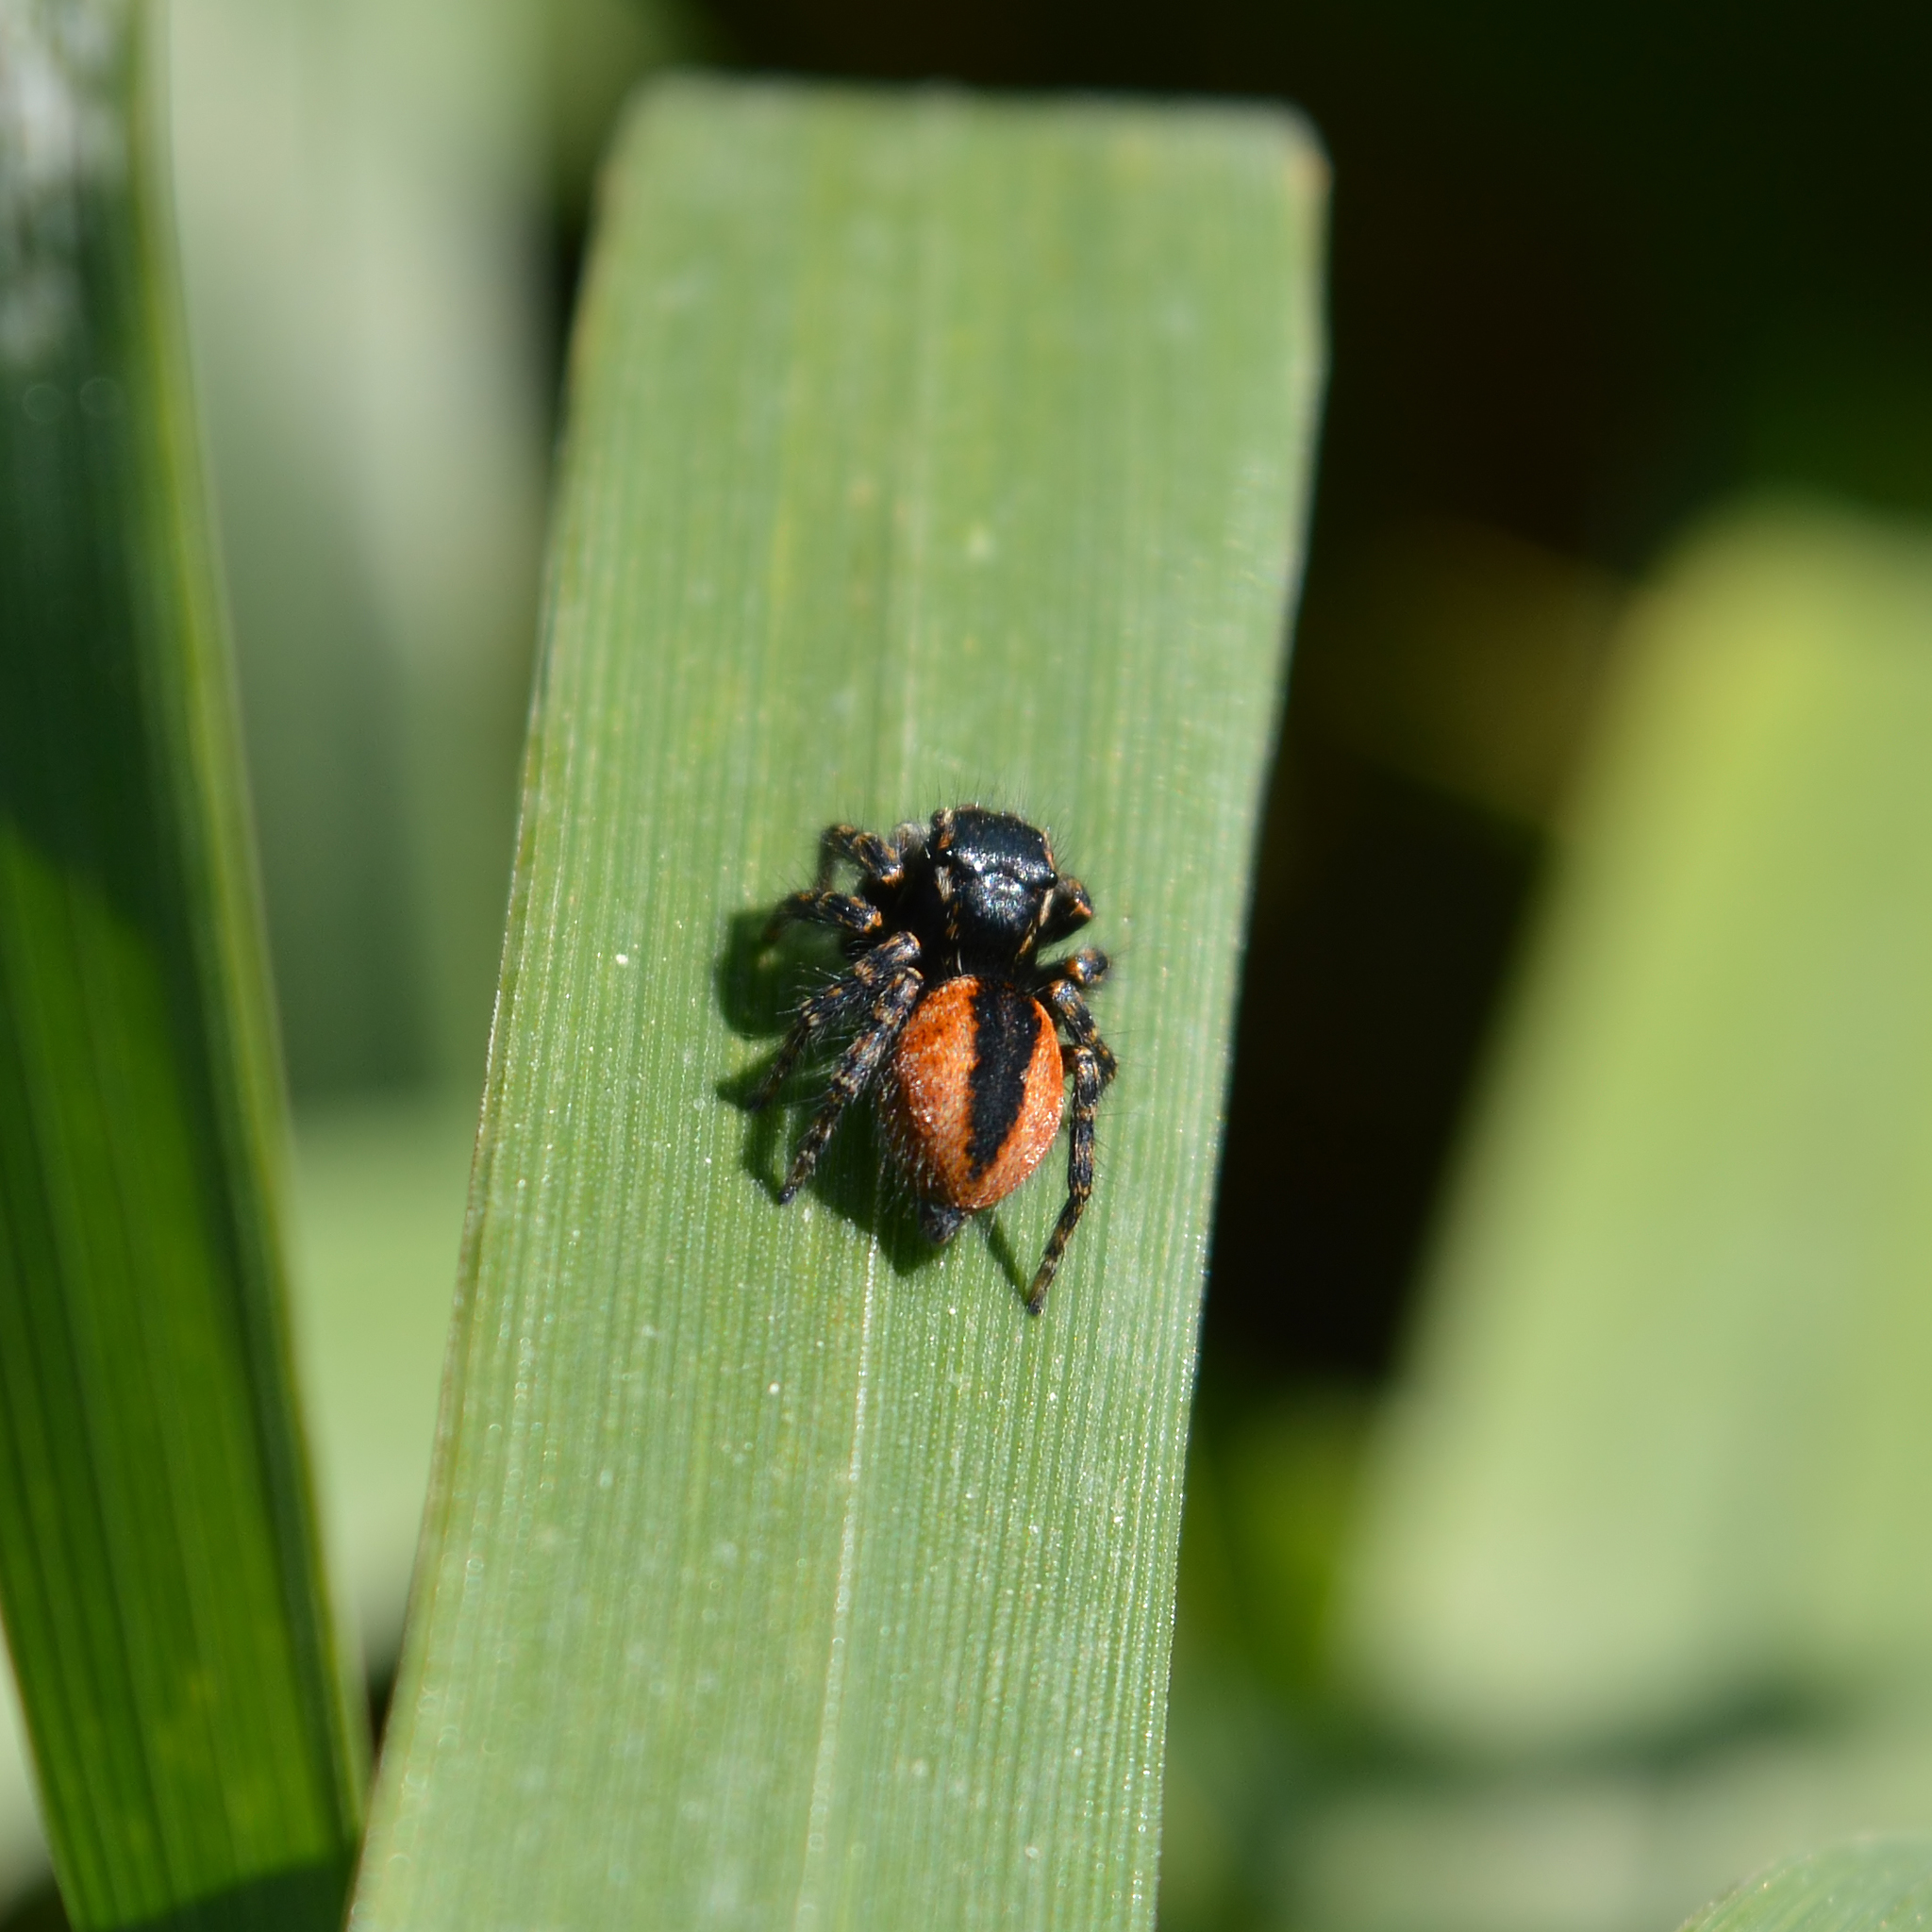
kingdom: Animalia
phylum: Arthropoda
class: Arachnida
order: Araneae
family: Salticidae
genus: Philaeus
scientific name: Philaeus chrysops
